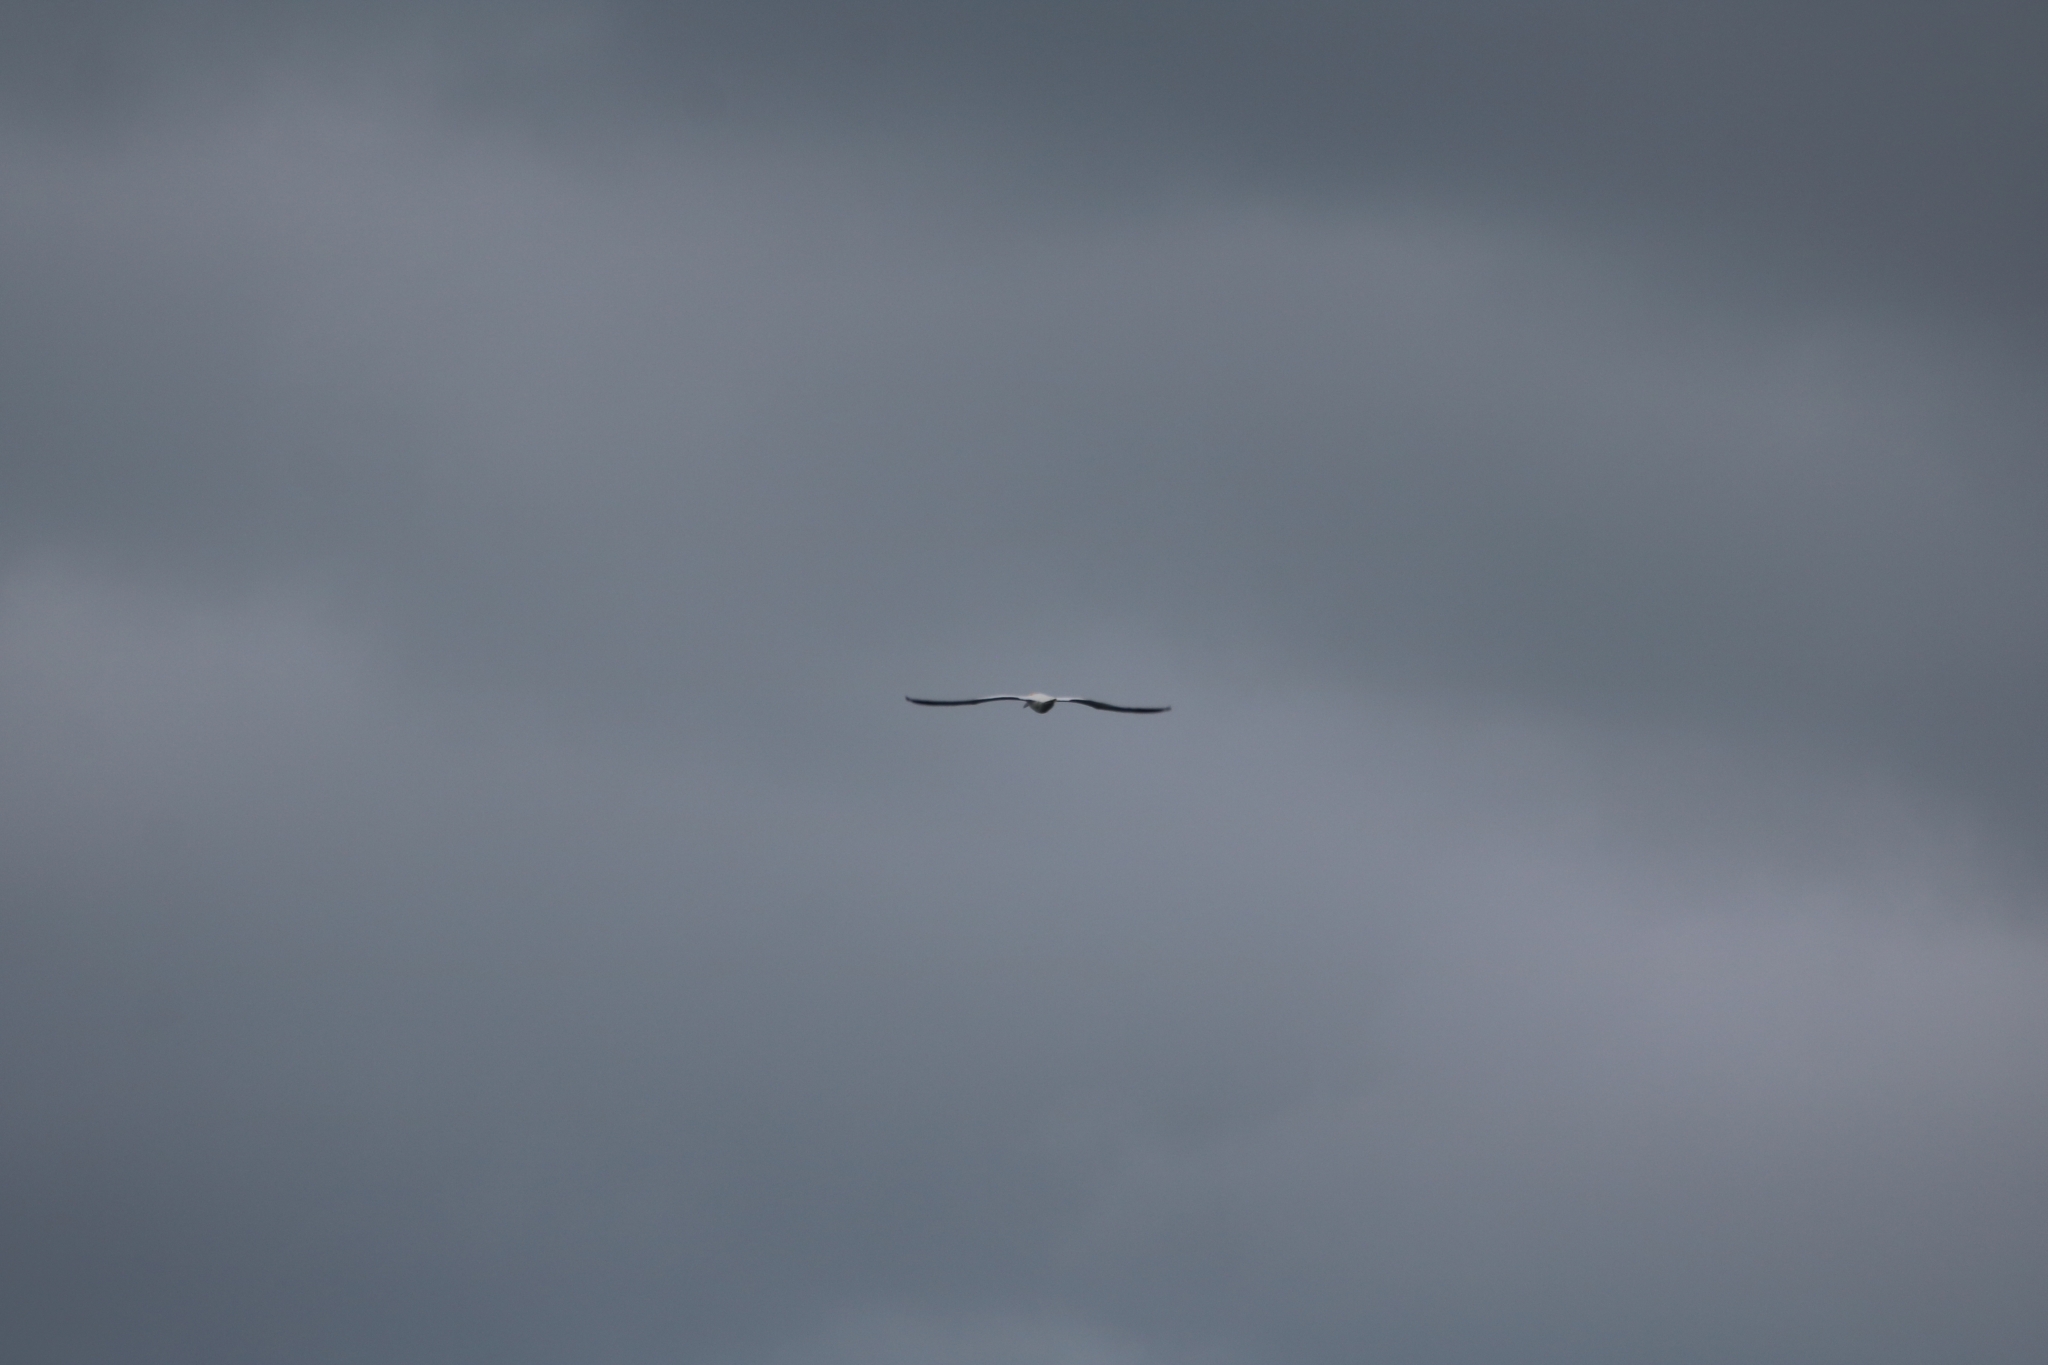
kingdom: Animalia
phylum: Chordata
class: Aves
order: Suliformes
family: Sulidae
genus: Morus
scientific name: Morus bassanus
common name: Northern gannet
